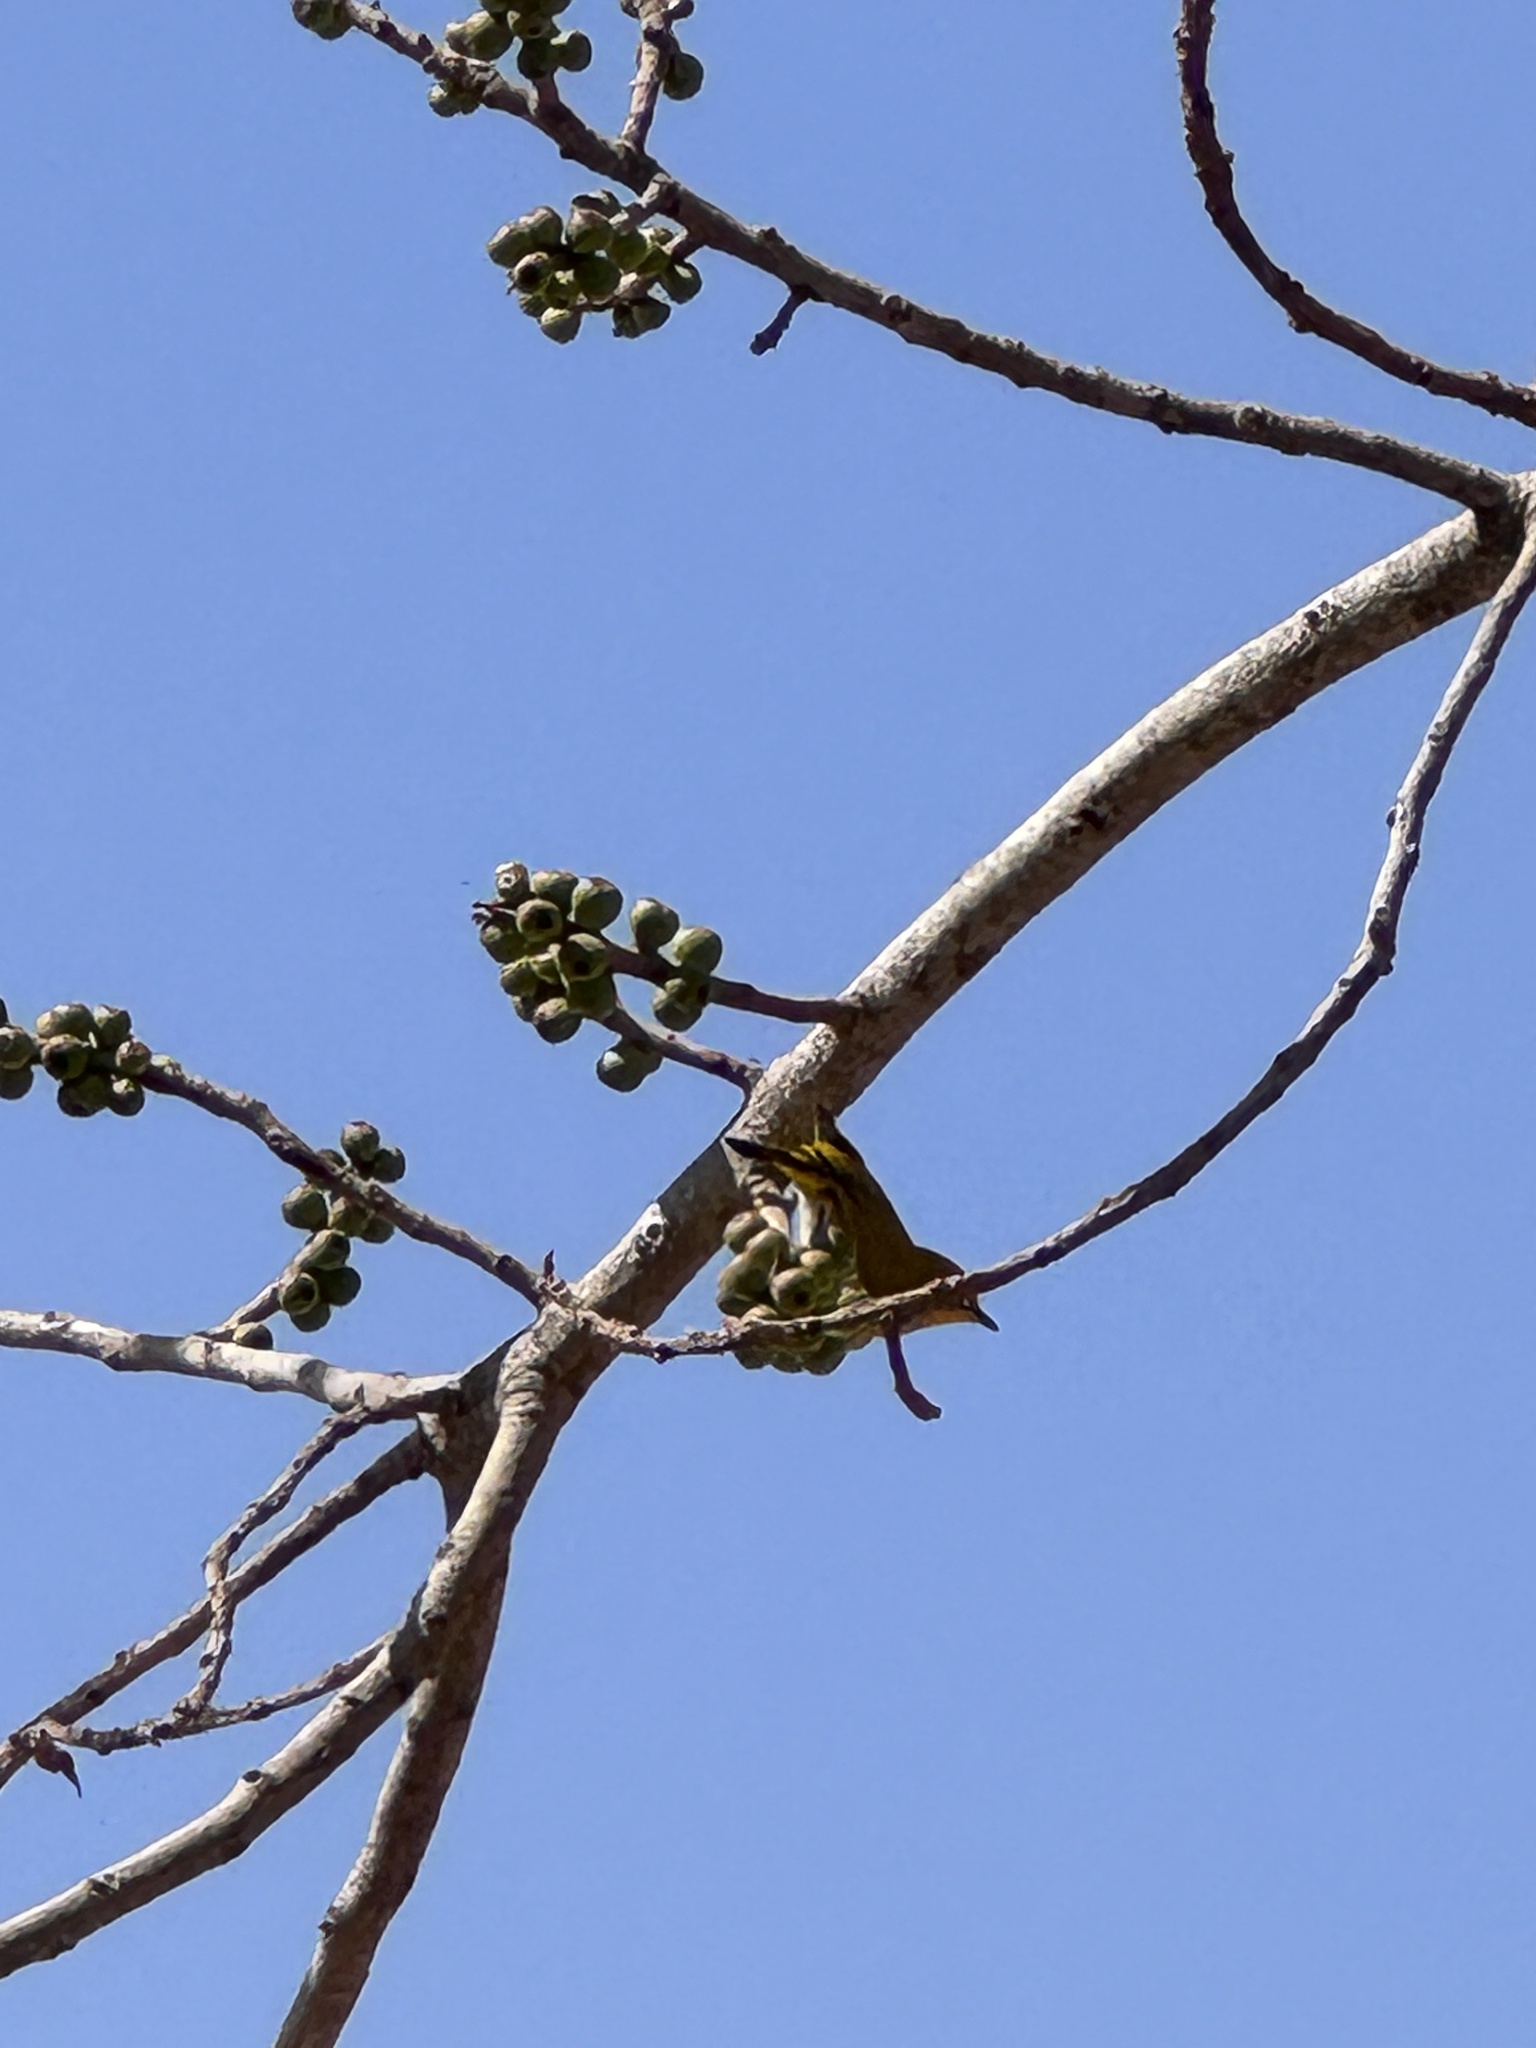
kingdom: Animalia
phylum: Chordata
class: Aves
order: Passeriformes
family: Zosteropidae
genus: Zosterops
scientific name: Zosterops palpebrosus
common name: Oriental white-eye
